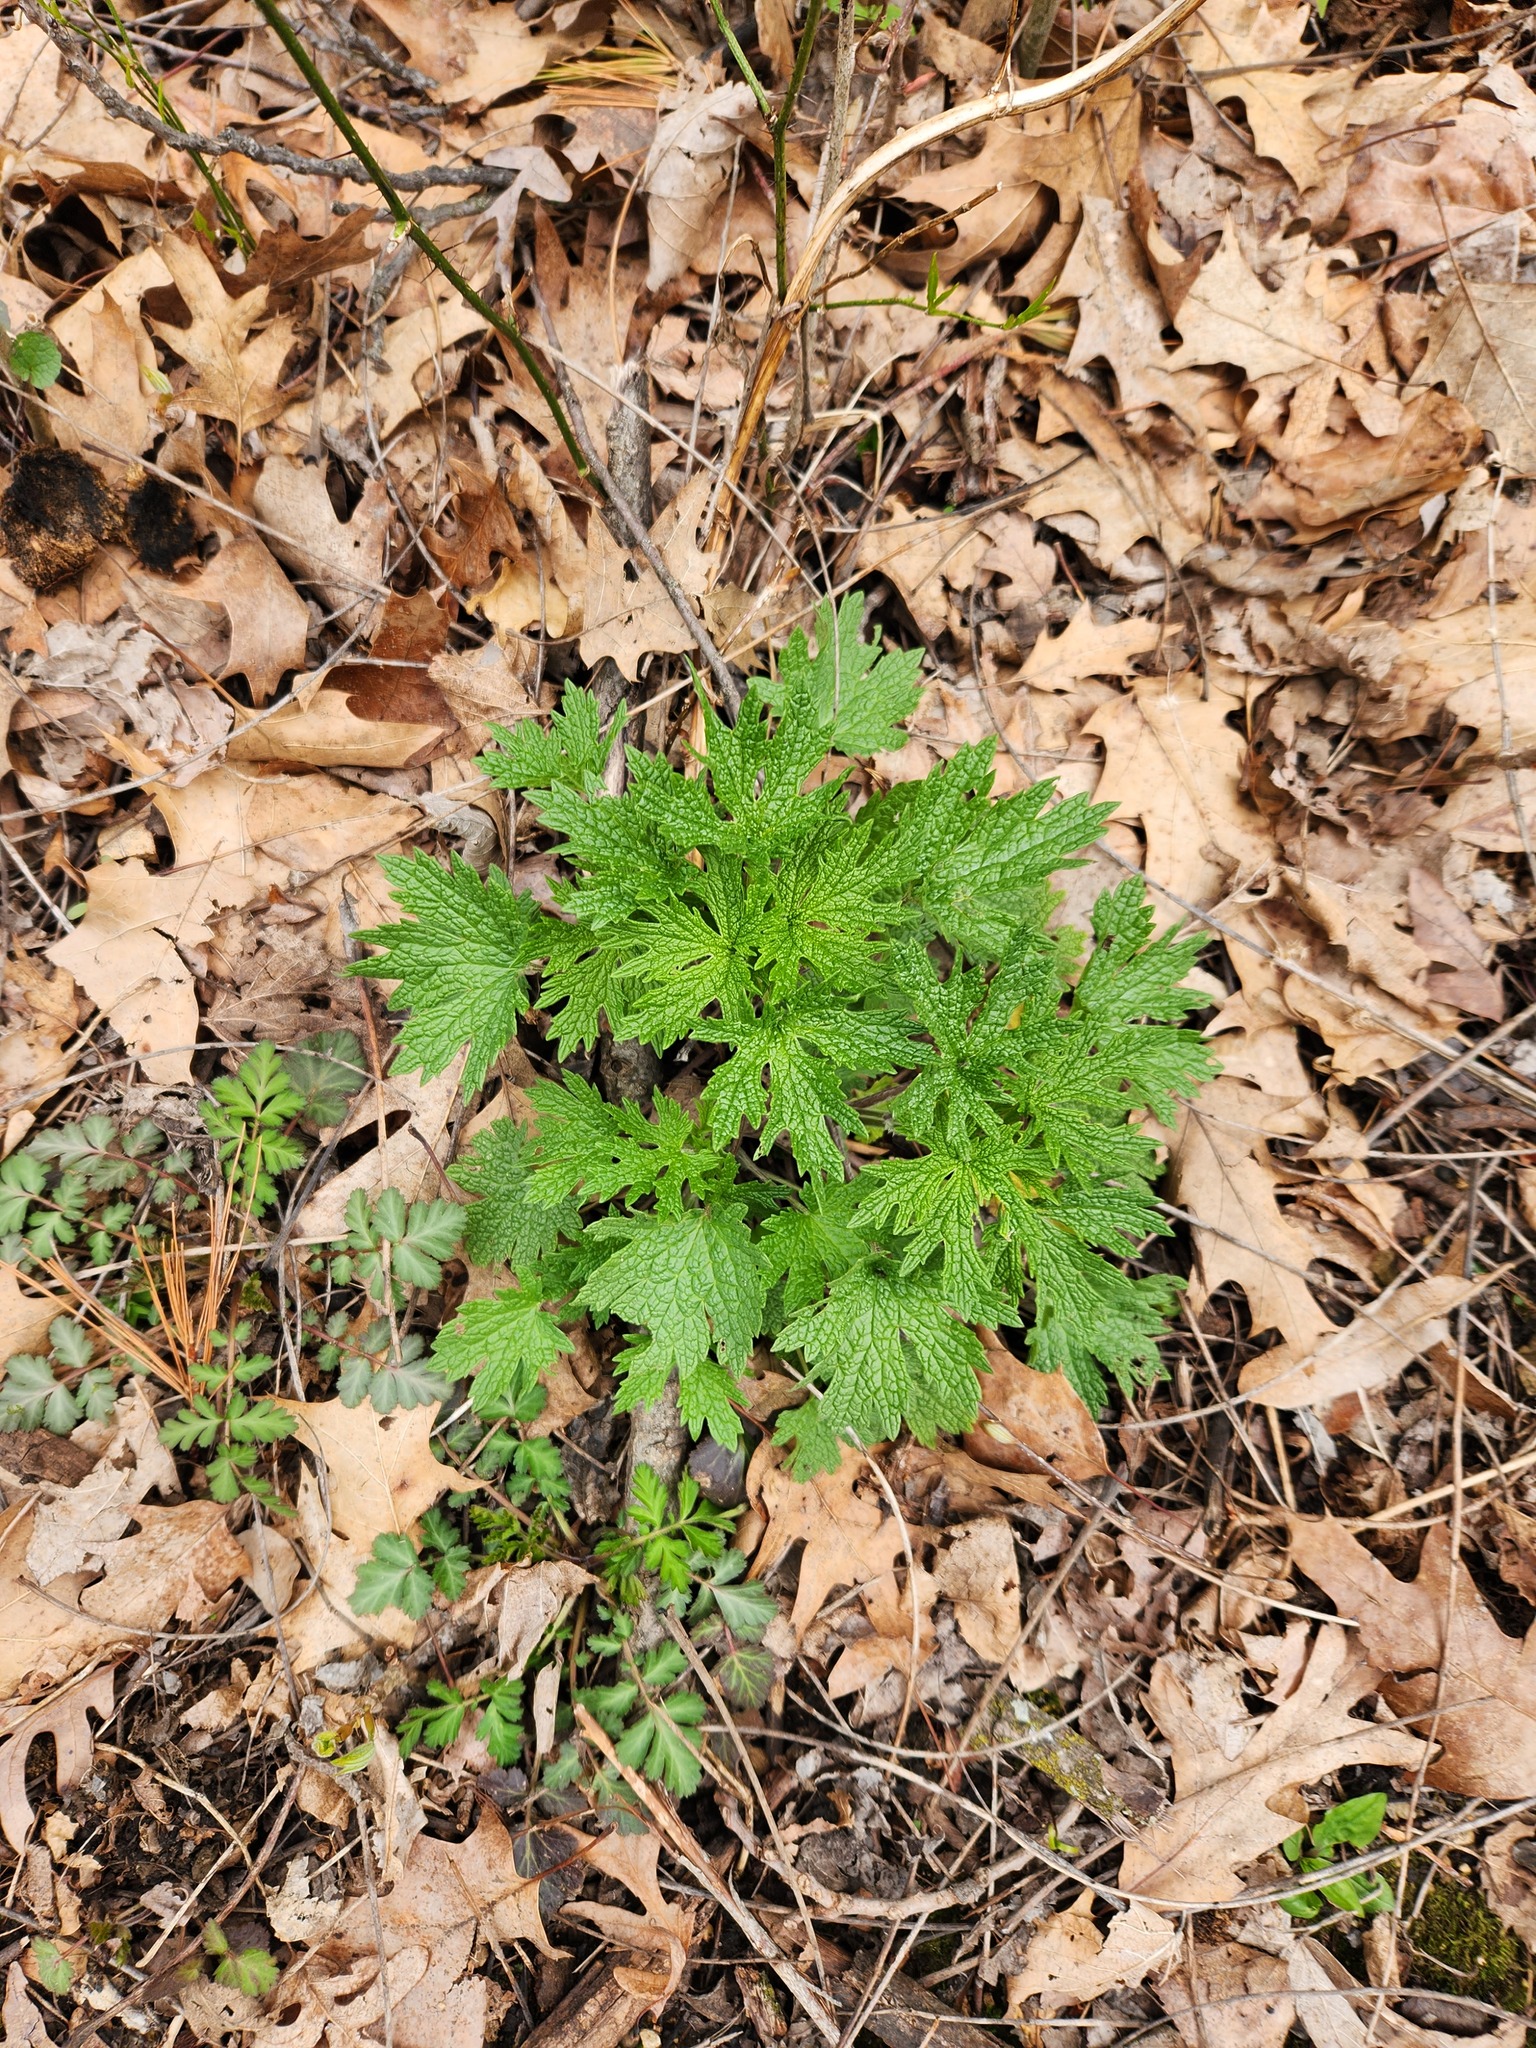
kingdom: Plantae
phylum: Tracheophyta
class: Magnoliopsida
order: Lamiales
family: Lamiaceae
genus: Leonurus
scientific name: Leonurus cardiaca
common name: Motherwort
